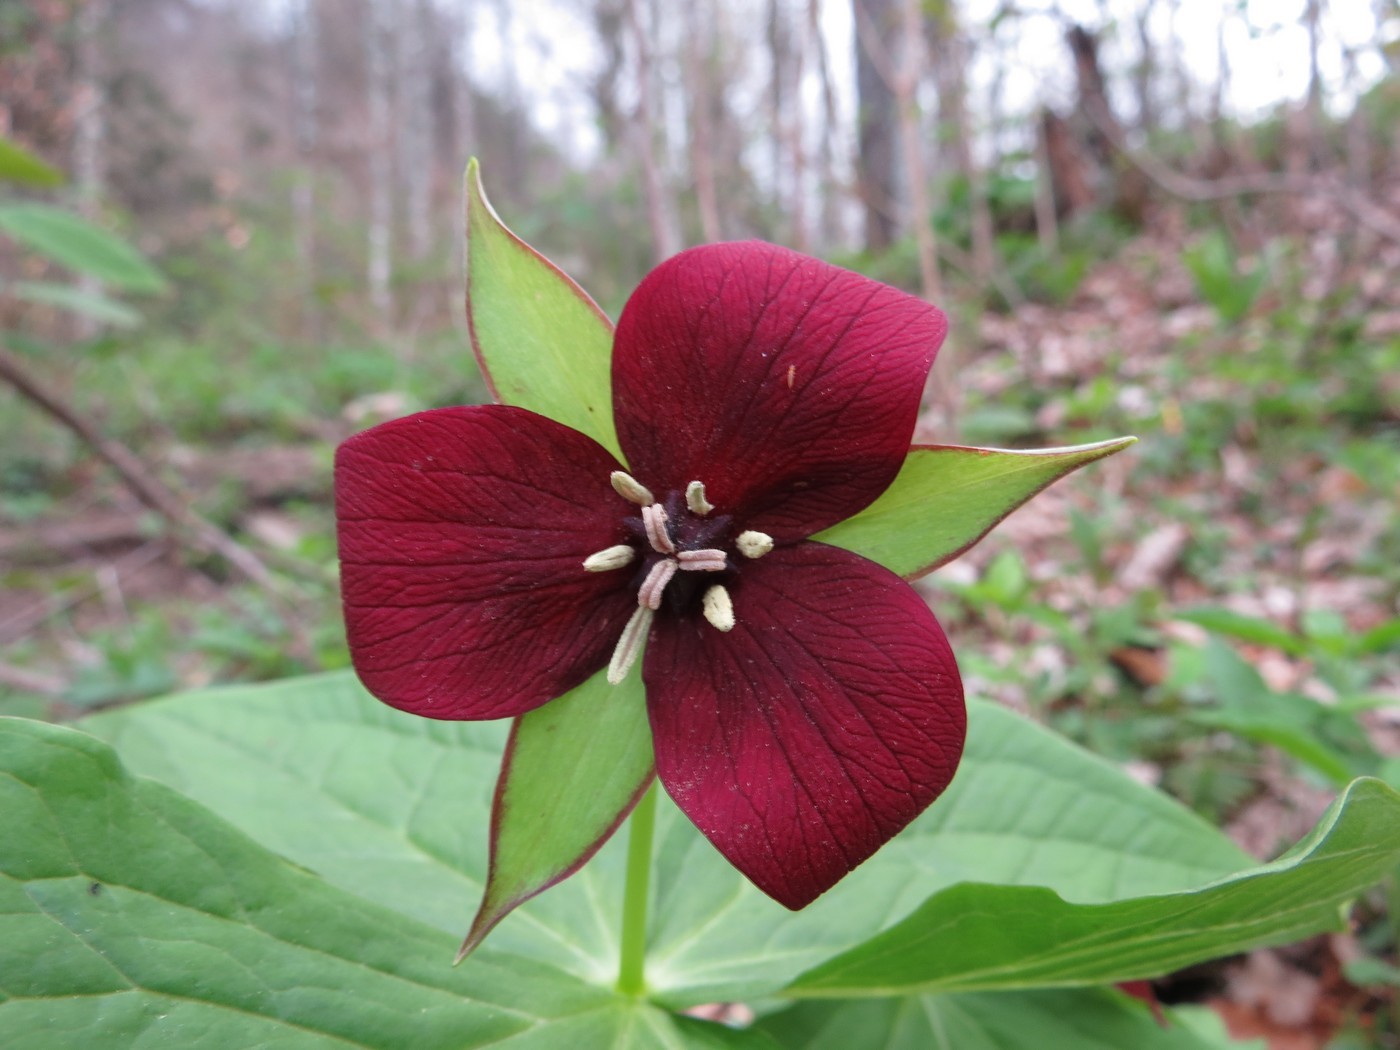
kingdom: Plantae
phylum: Tracheophyta
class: Liliopsida
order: Liliales
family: Melanthiaceae
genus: Trillium
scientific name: Trillium erectum
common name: Purple trillium
